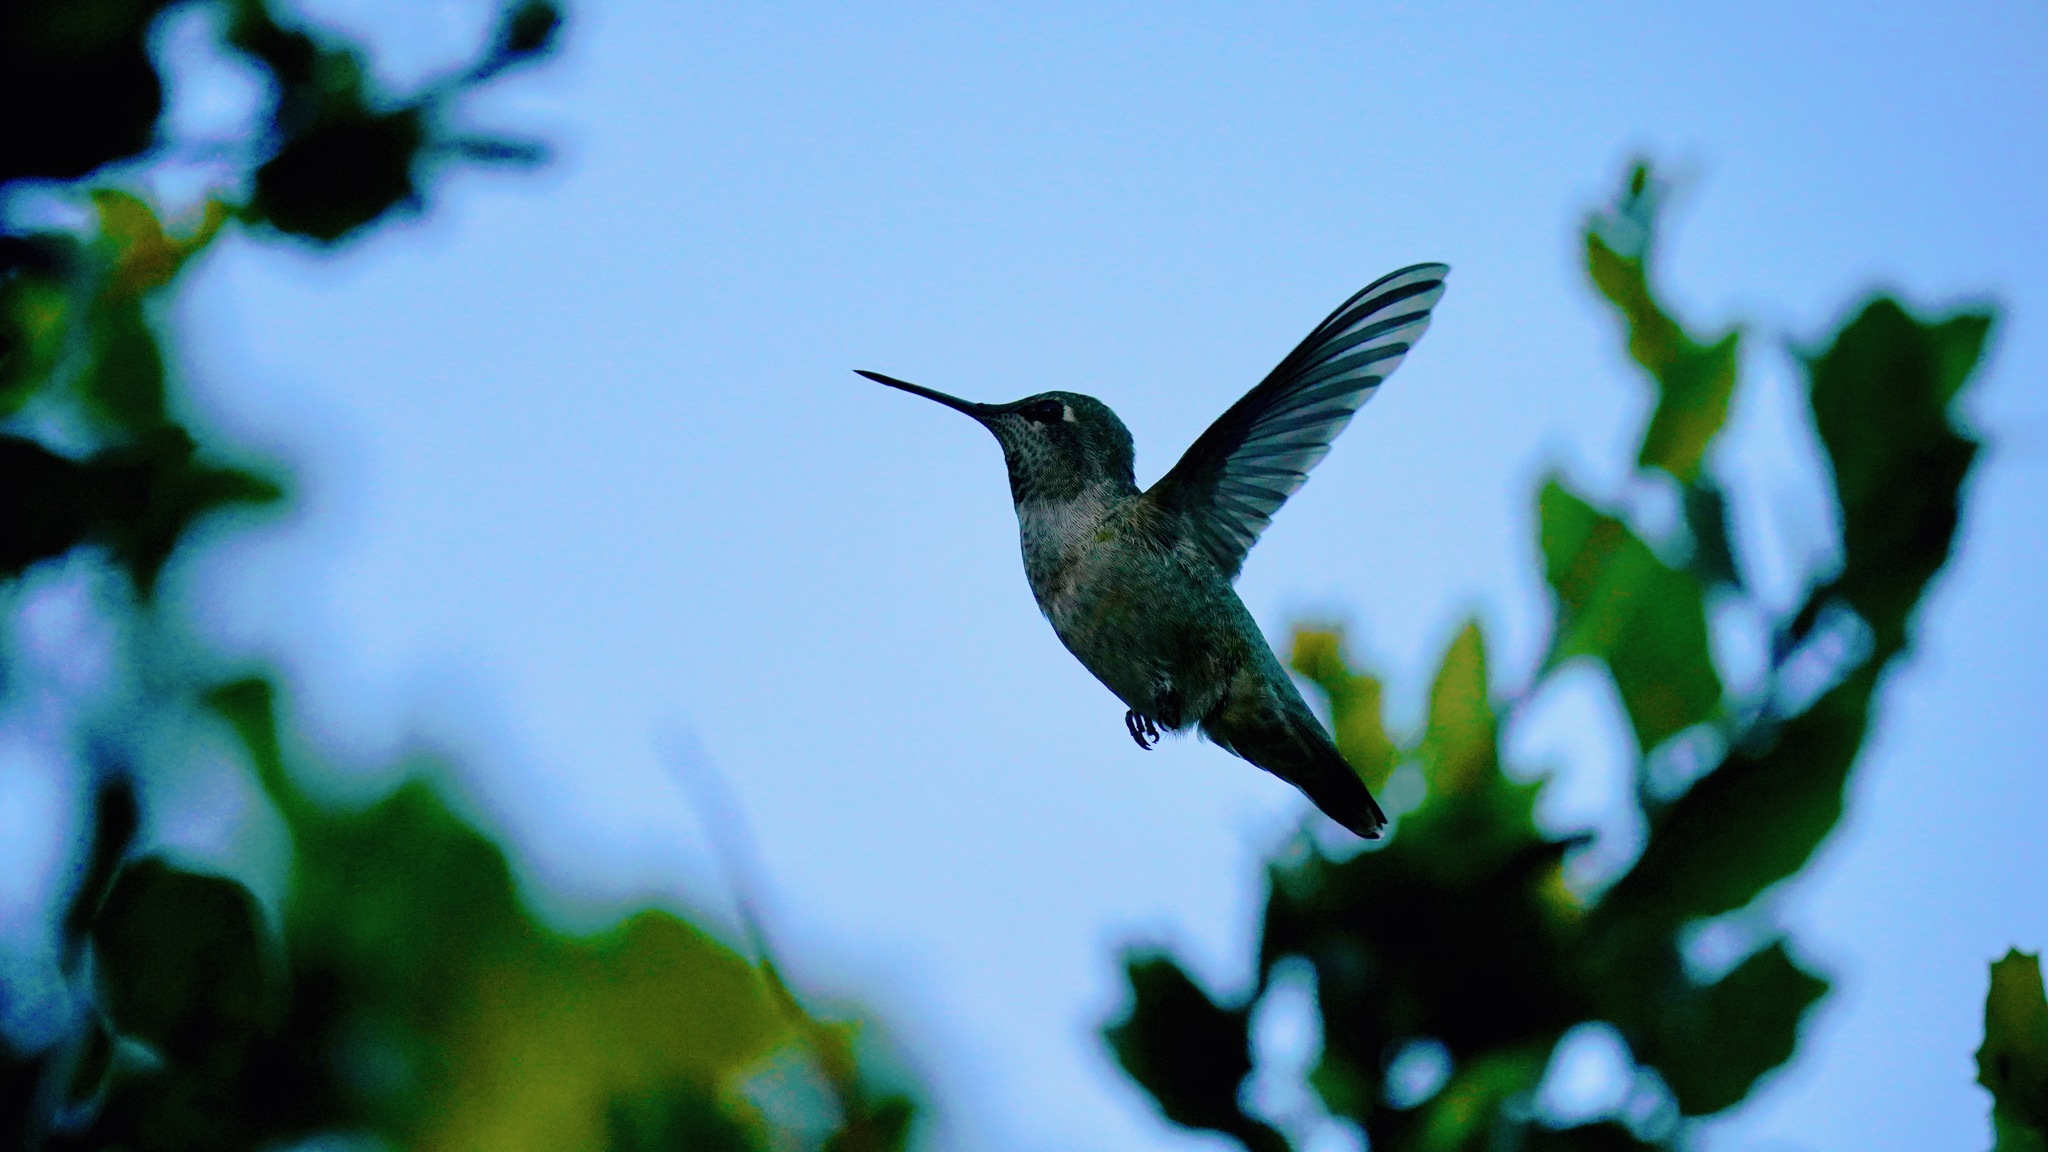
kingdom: Animalia
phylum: Chordata
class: Aves
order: Apodiformes
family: Trochilidae
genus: Calypte
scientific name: Calypte anna
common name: Anna's hummingbird
